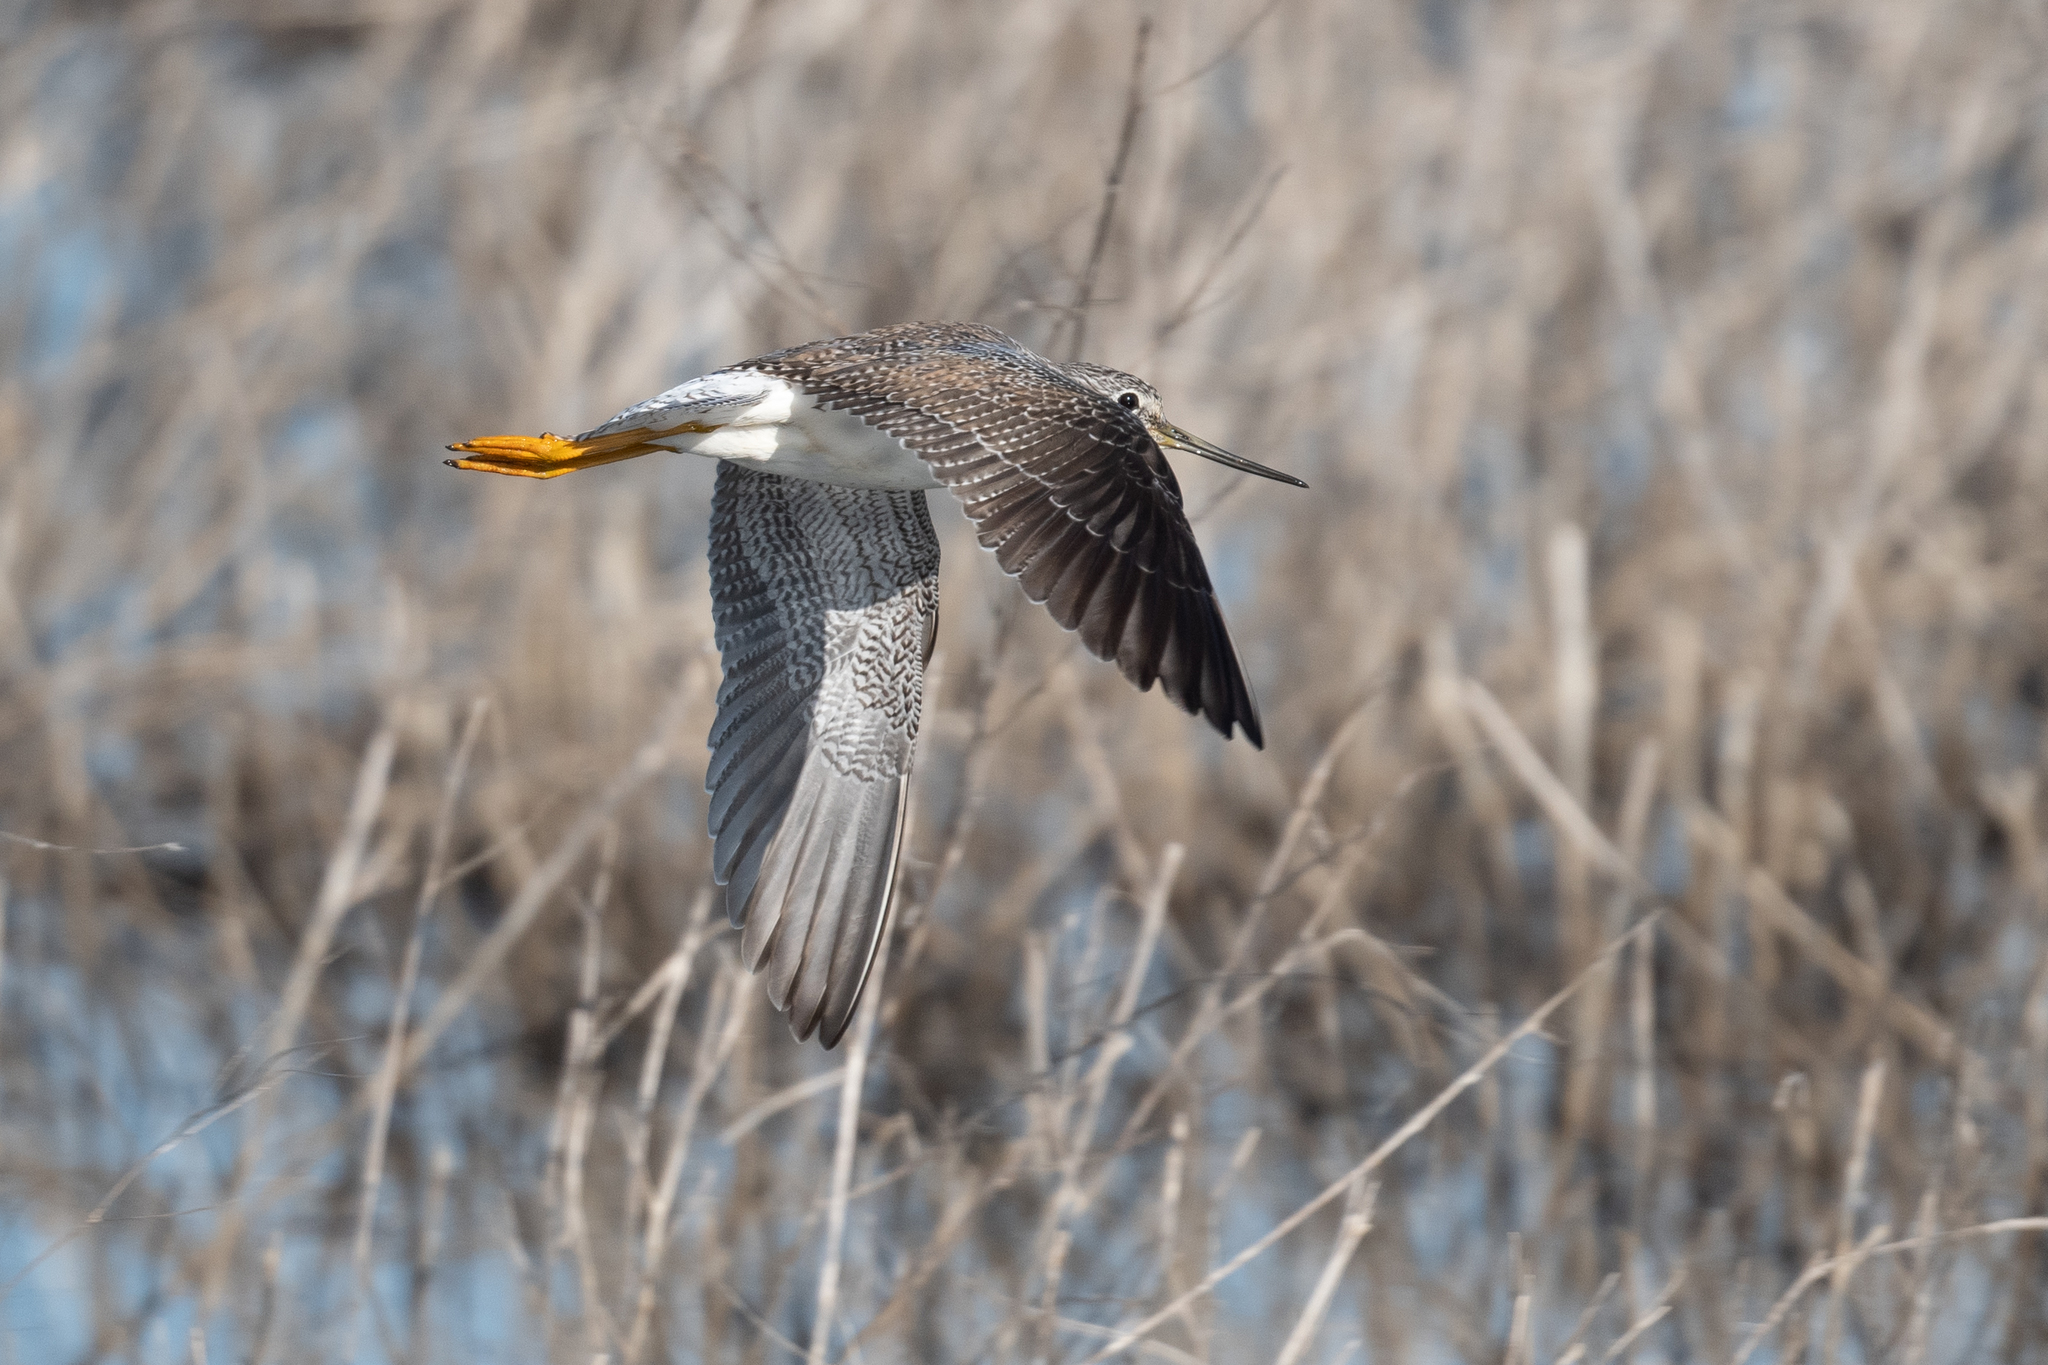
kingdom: Animalia
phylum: Chordata
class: Aves
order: Charadriiformes
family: Scolopacidae
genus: Tringa
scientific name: Tringa melanoleuca
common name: Greater yellowlegs
